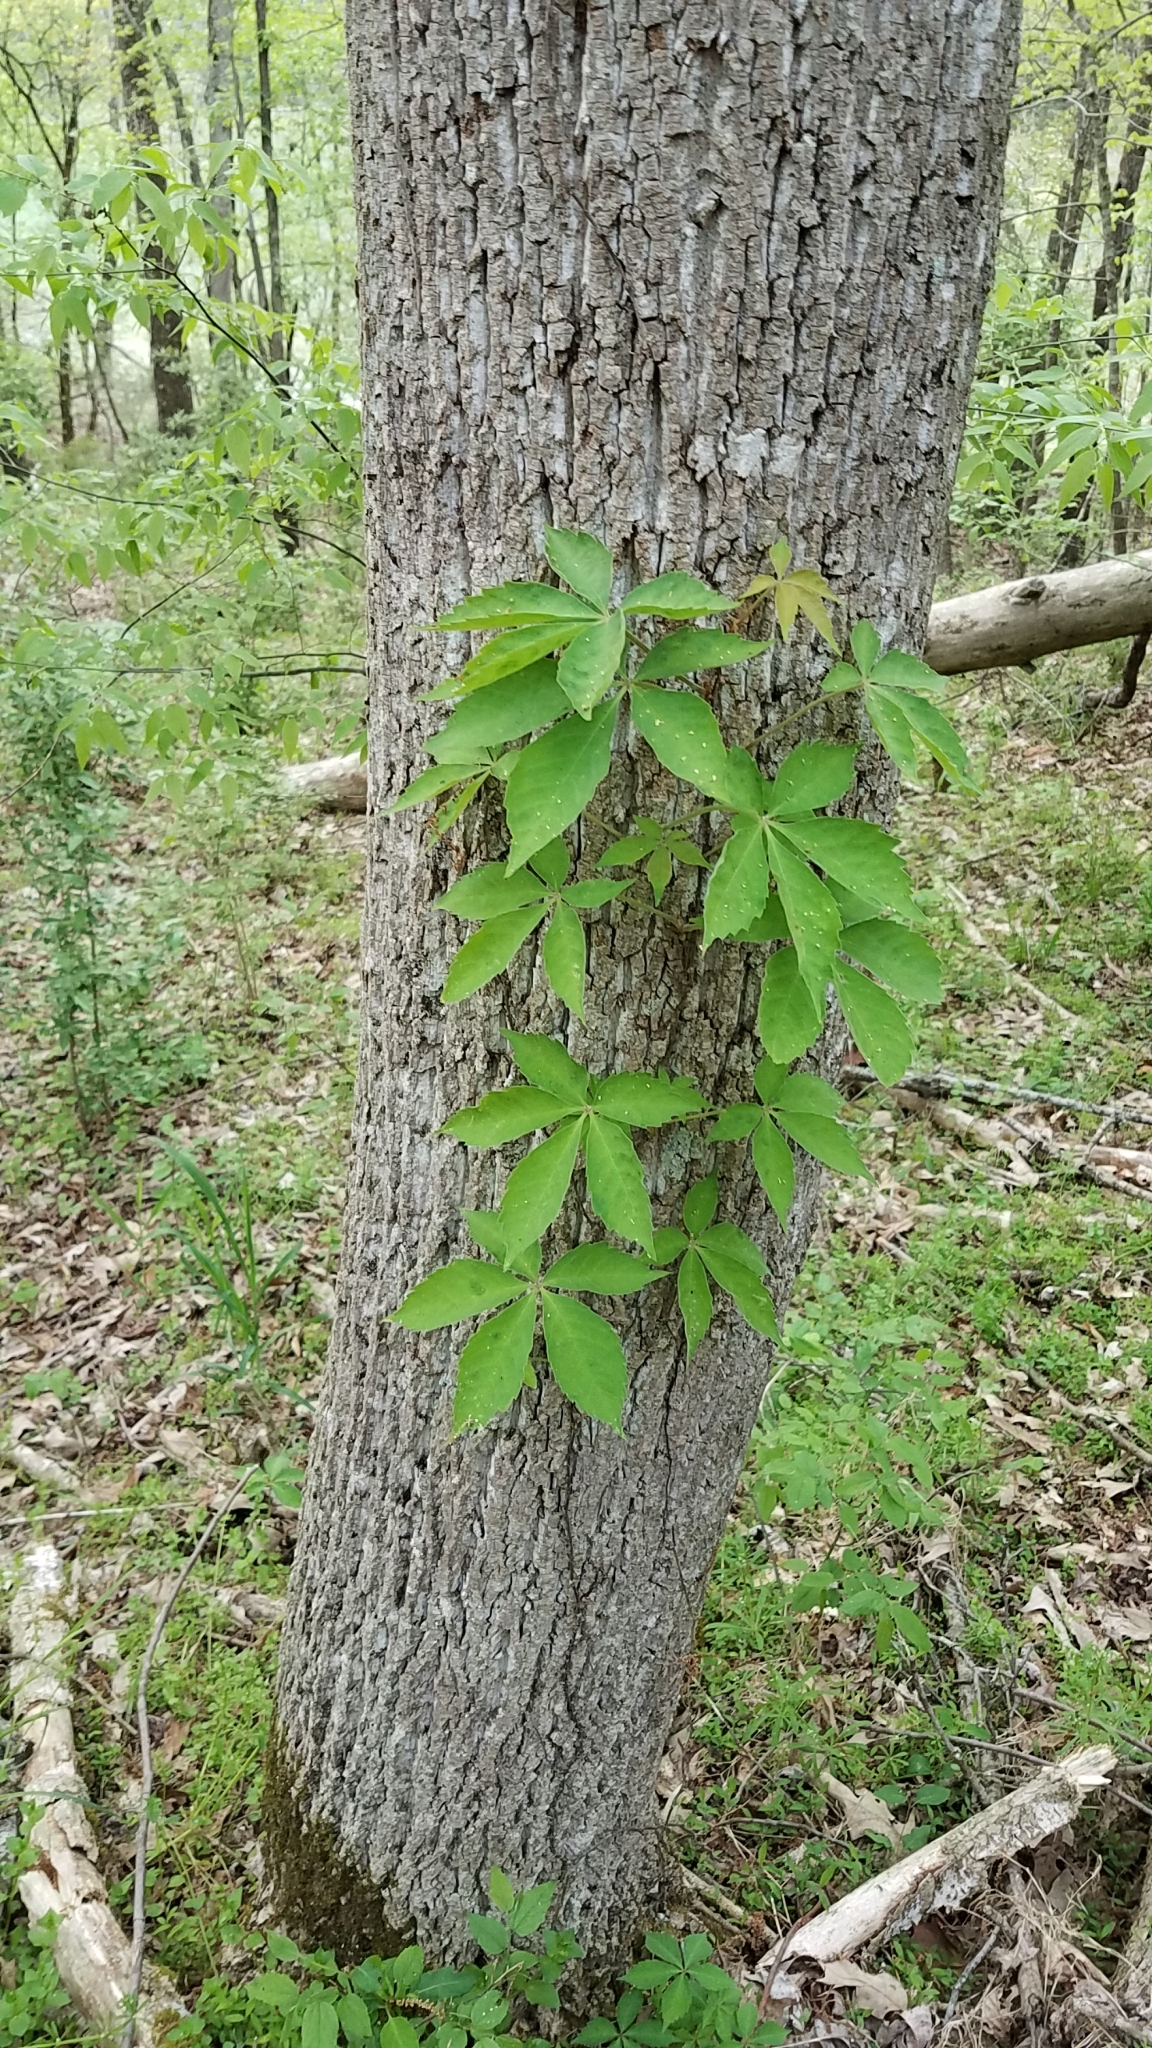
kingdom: Plantae
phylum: Tracheophyta
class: Magnoliopsida
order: Vitales
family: Vitaceae
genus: Parthenocissus
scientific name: Parthenocissus quinquefolia
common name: Virginia-creeper
